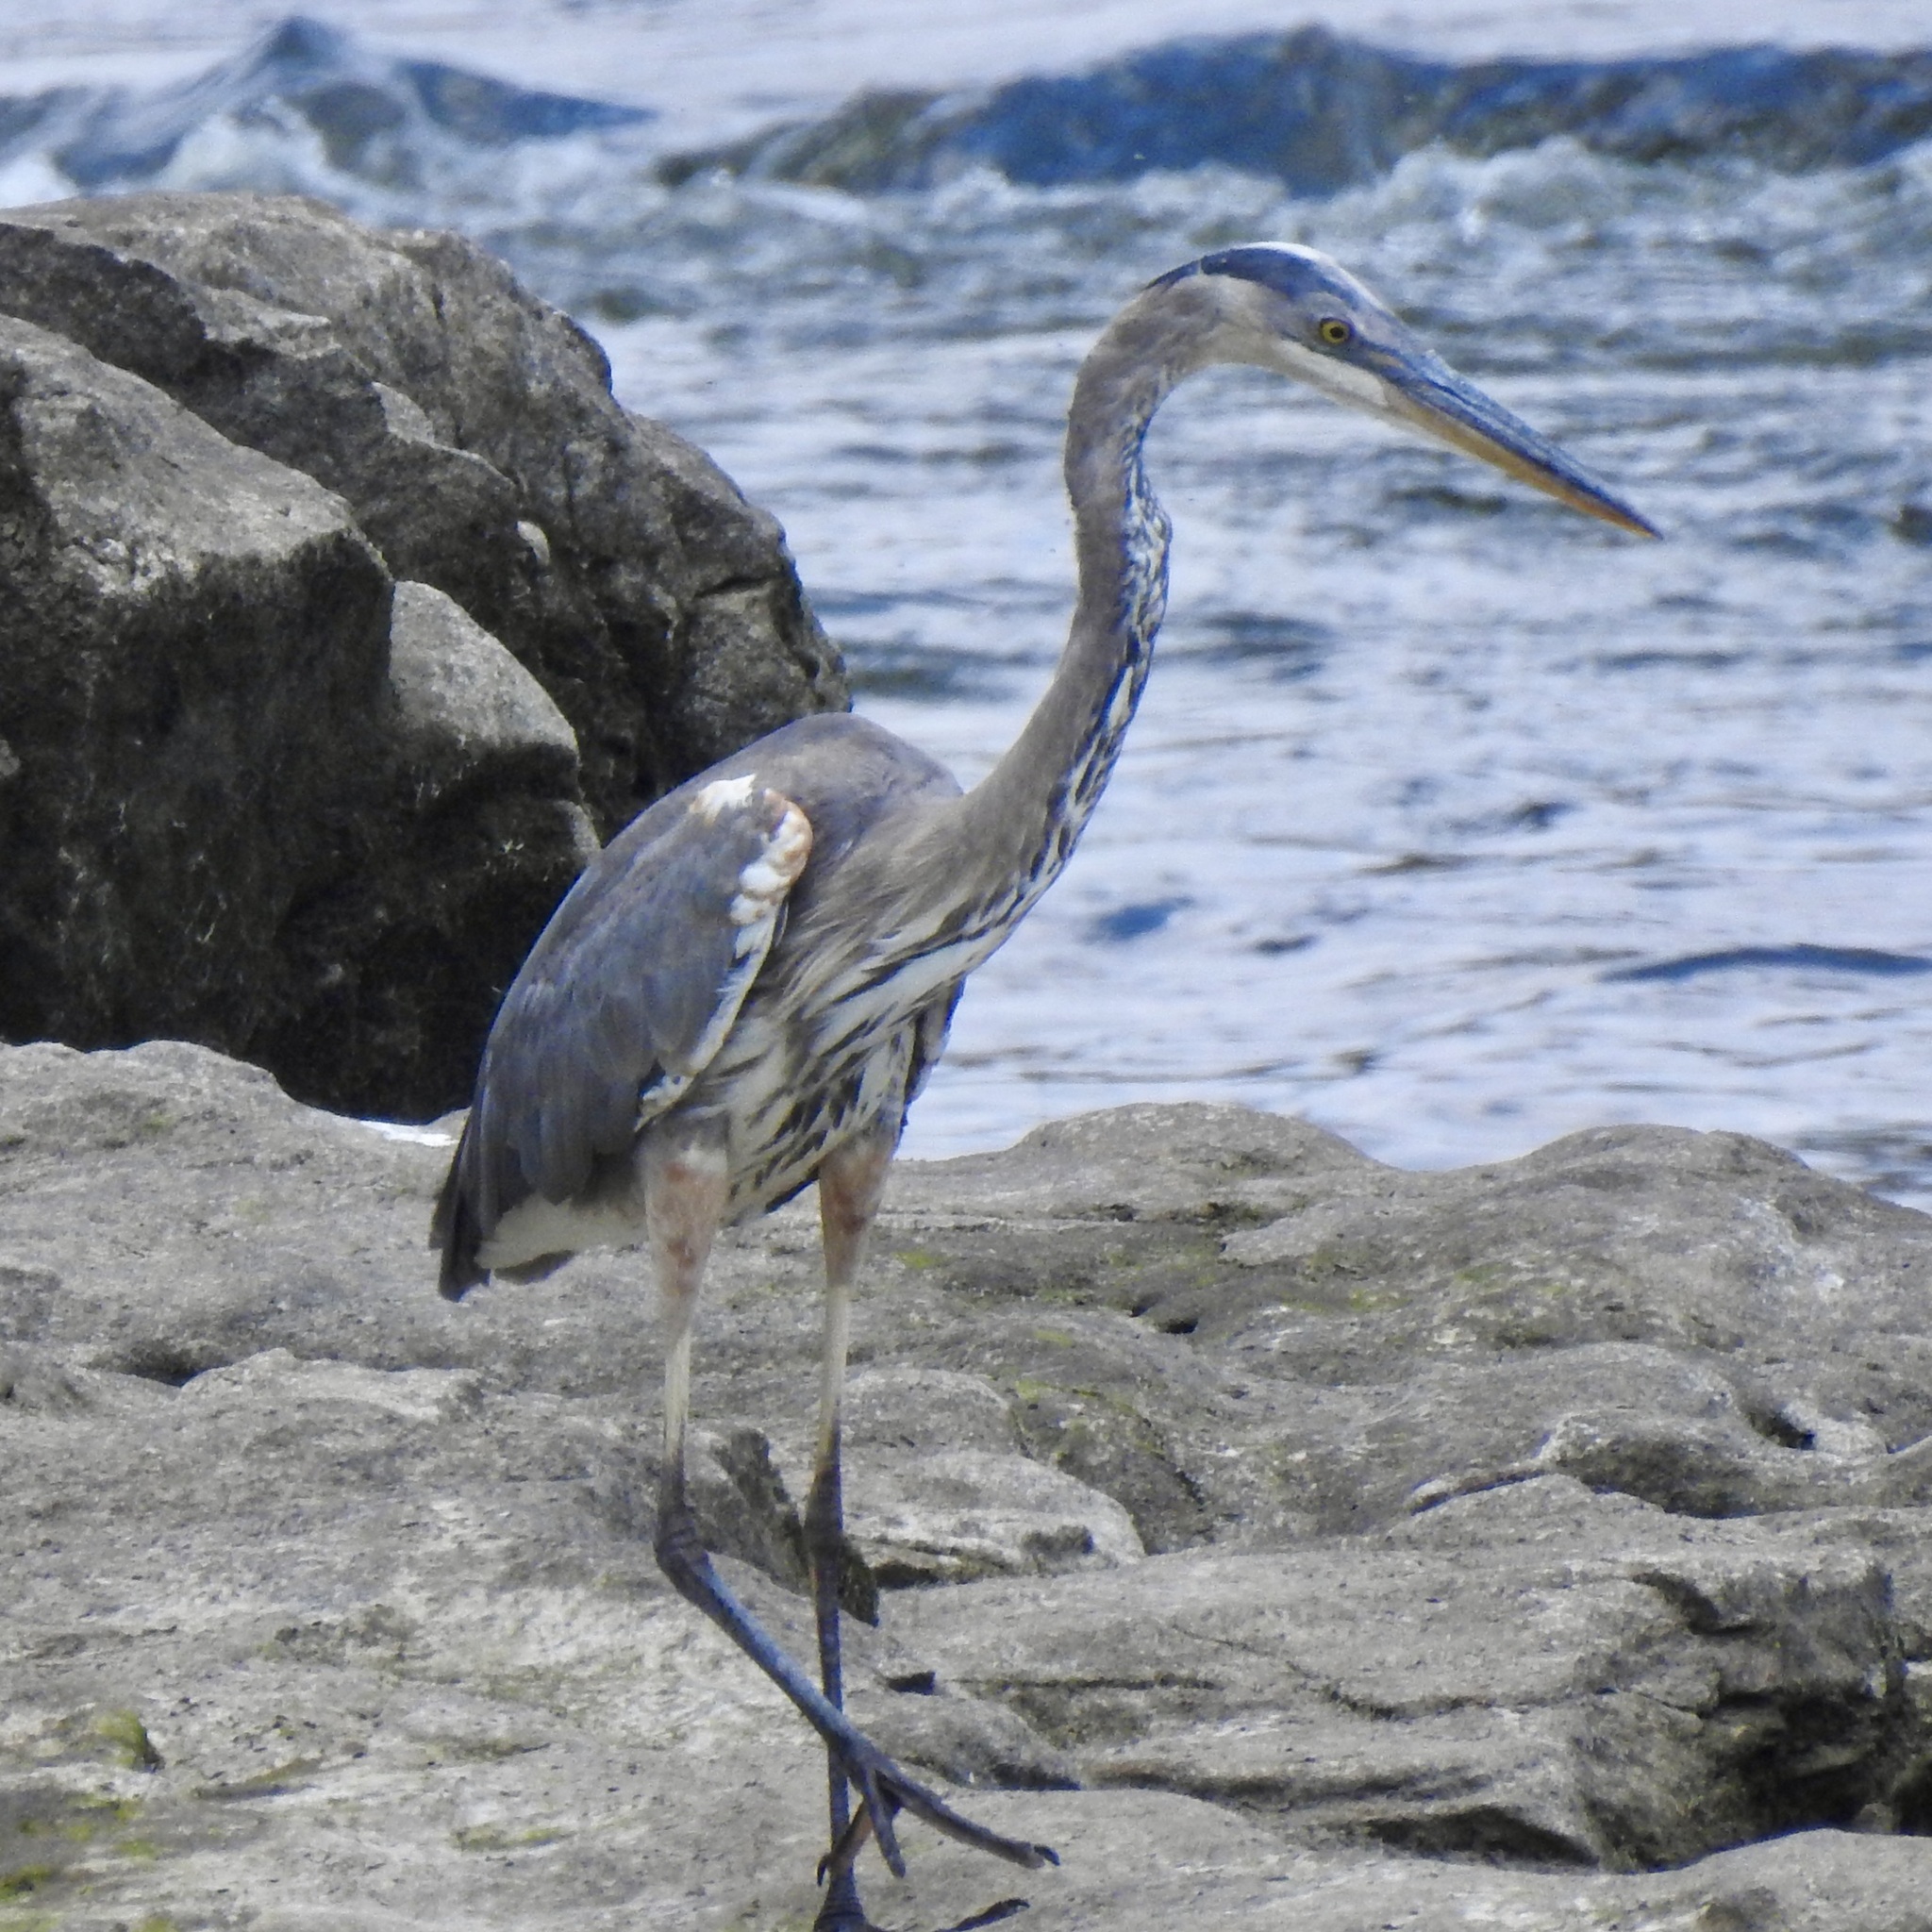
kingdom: Animalia
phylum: Chordata
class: Aves
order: Pelecaniformes
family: Ardeidae
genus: Ardea
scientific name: Ardea herodias
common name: Great blue heron
